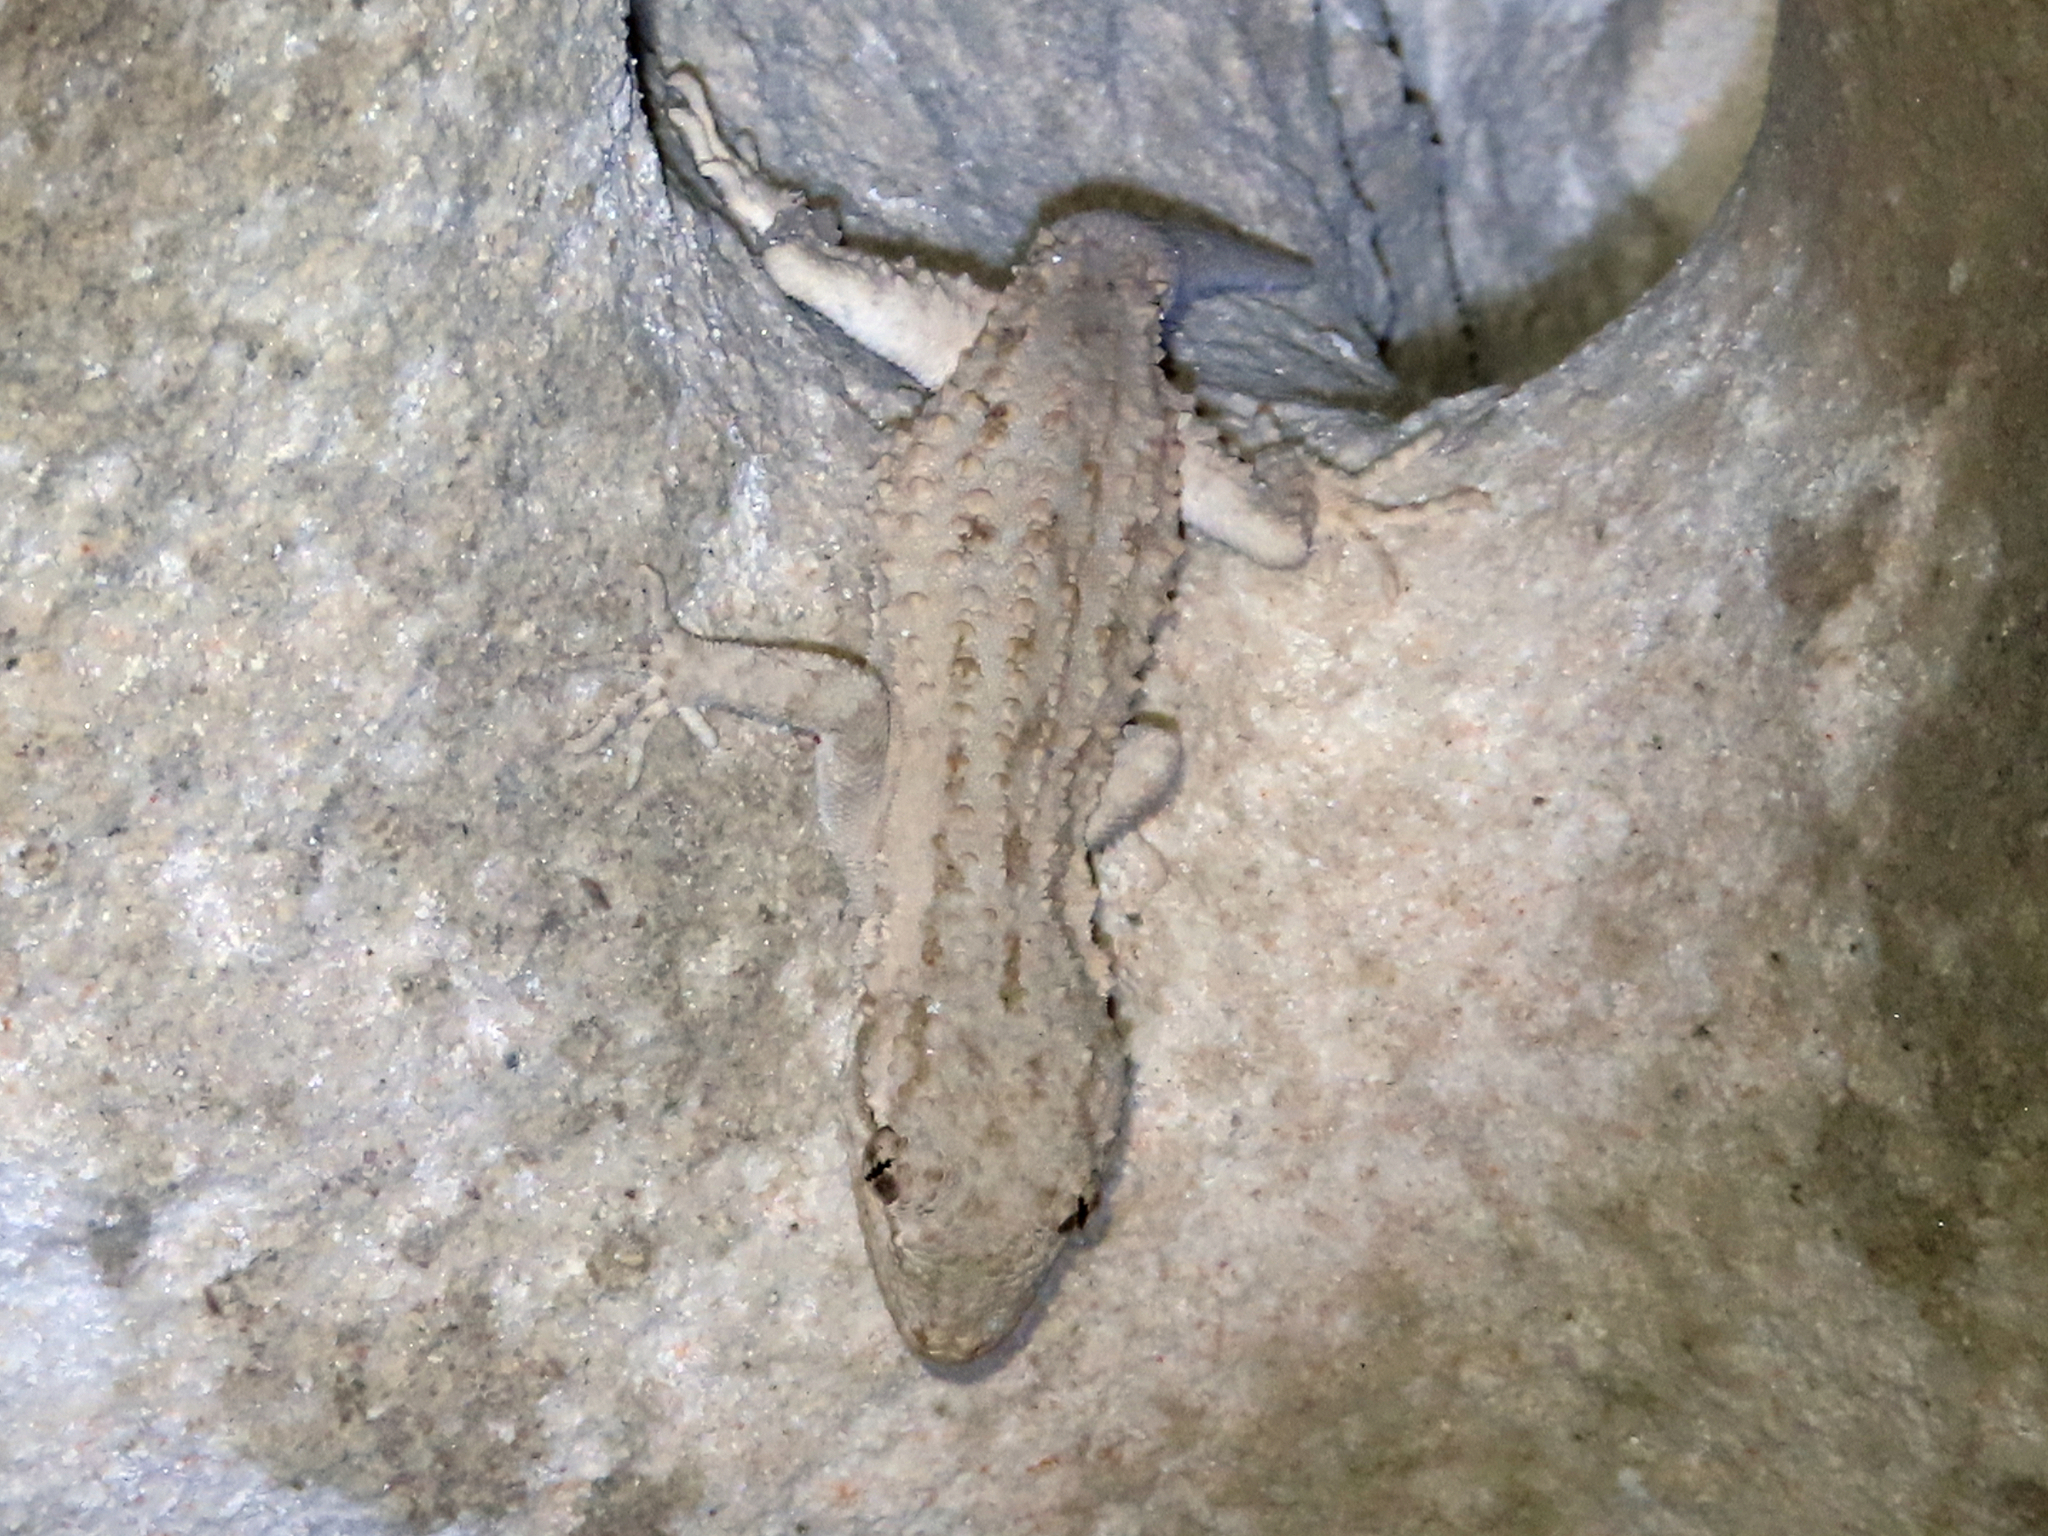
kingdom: Animalia
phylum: Chordata
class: Squamata
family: Gekkonidae
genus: Mediodactylus
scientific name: Mediodactylus russowii
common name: Grey thin-toed gecko
